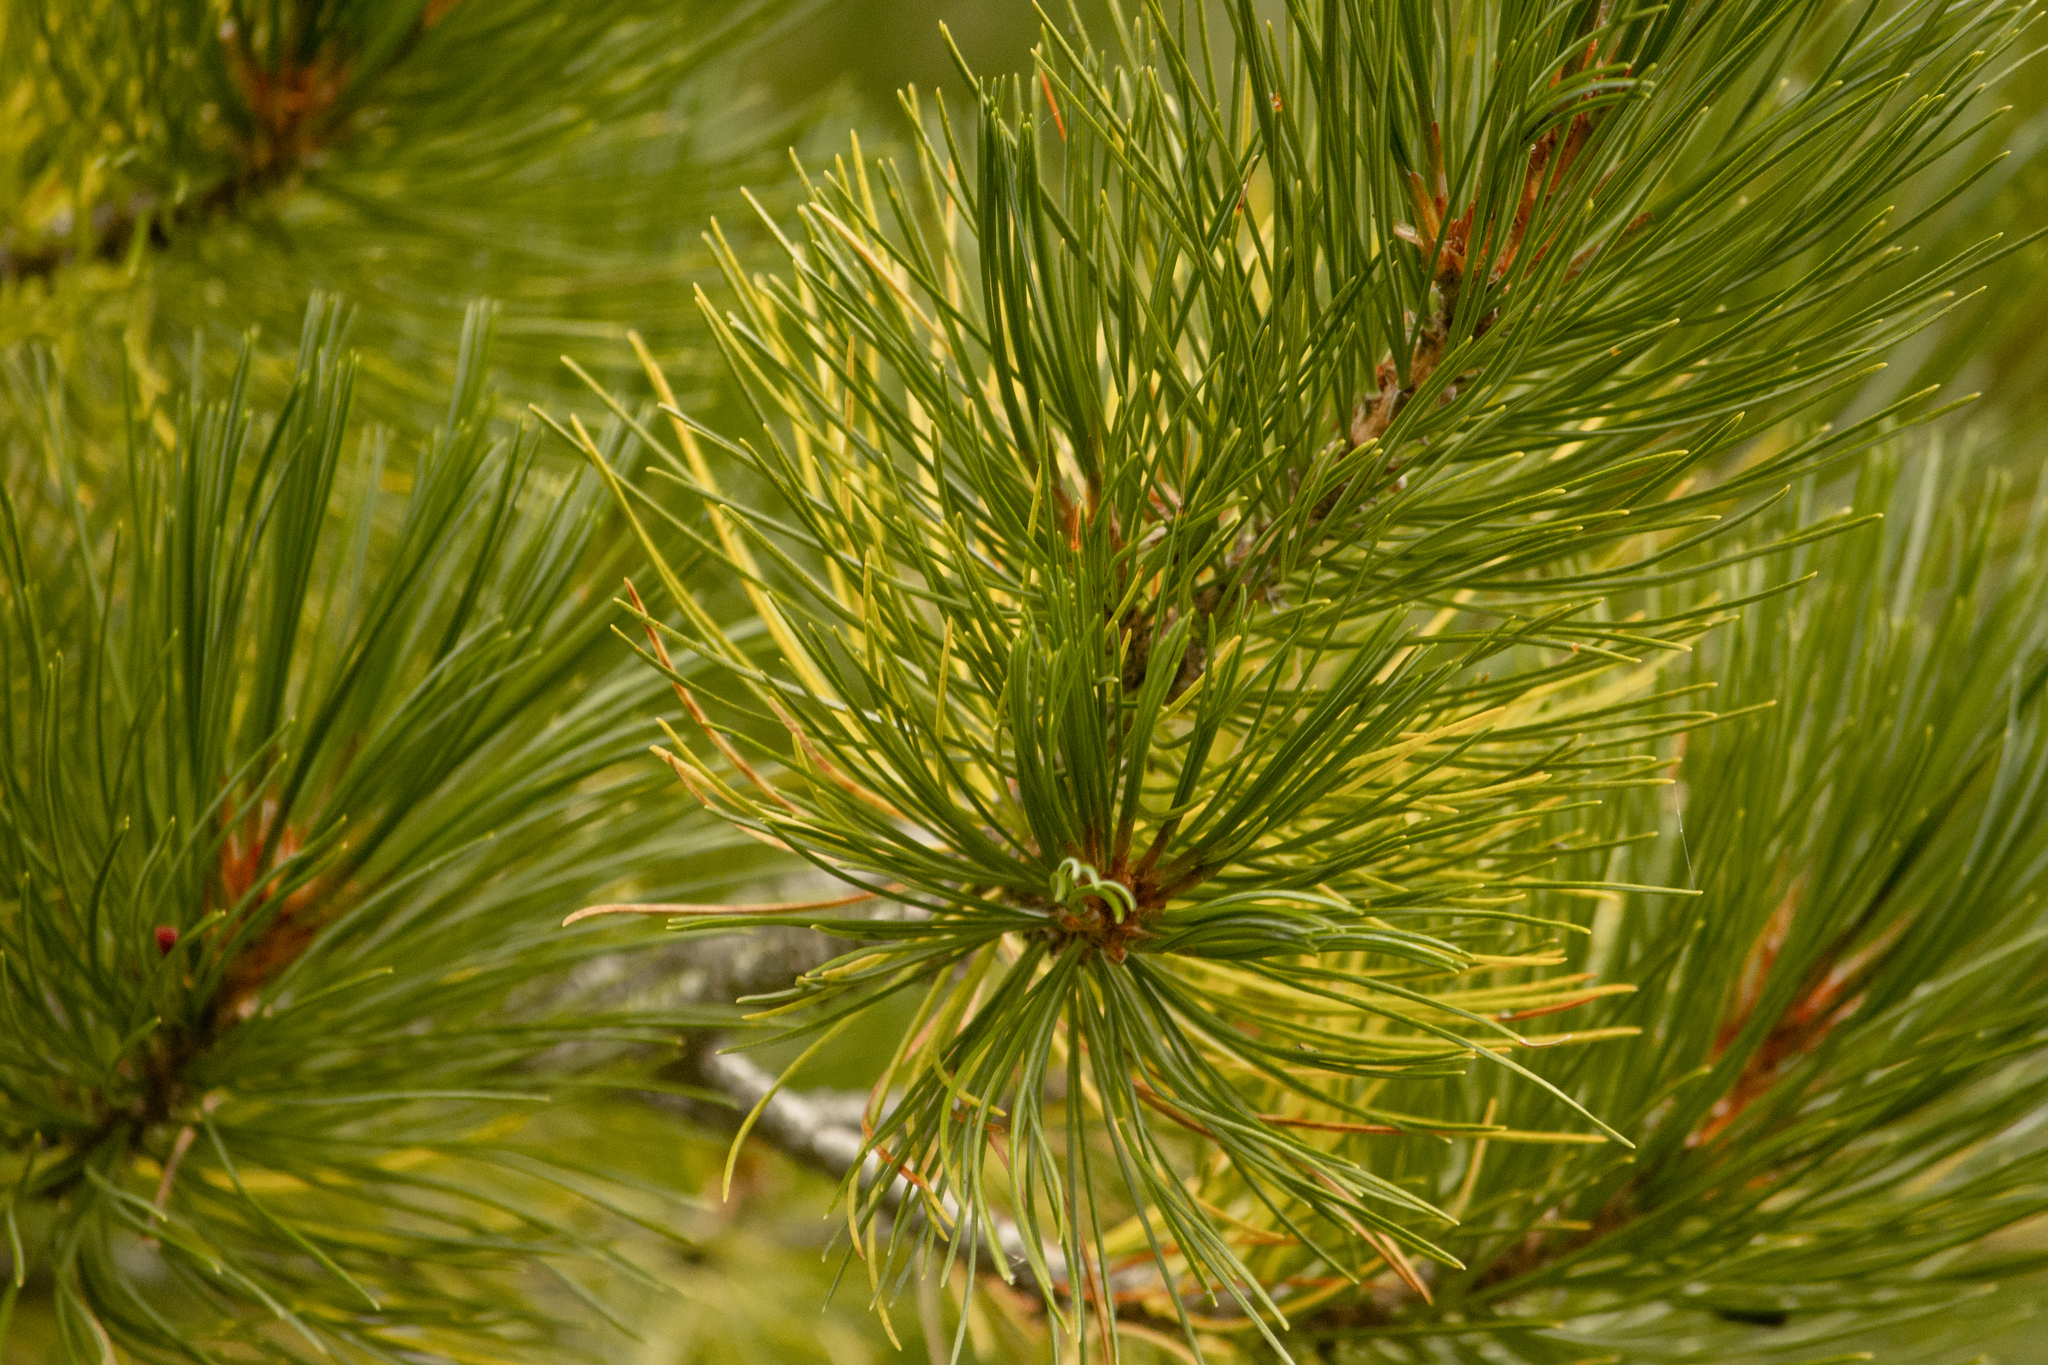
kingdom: Plantae
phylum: Tracheophyta
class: Pinopsida
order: Pinales
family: Pinaceae
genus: Pinus
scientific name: Pinus sibirica
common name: Siberian pine
